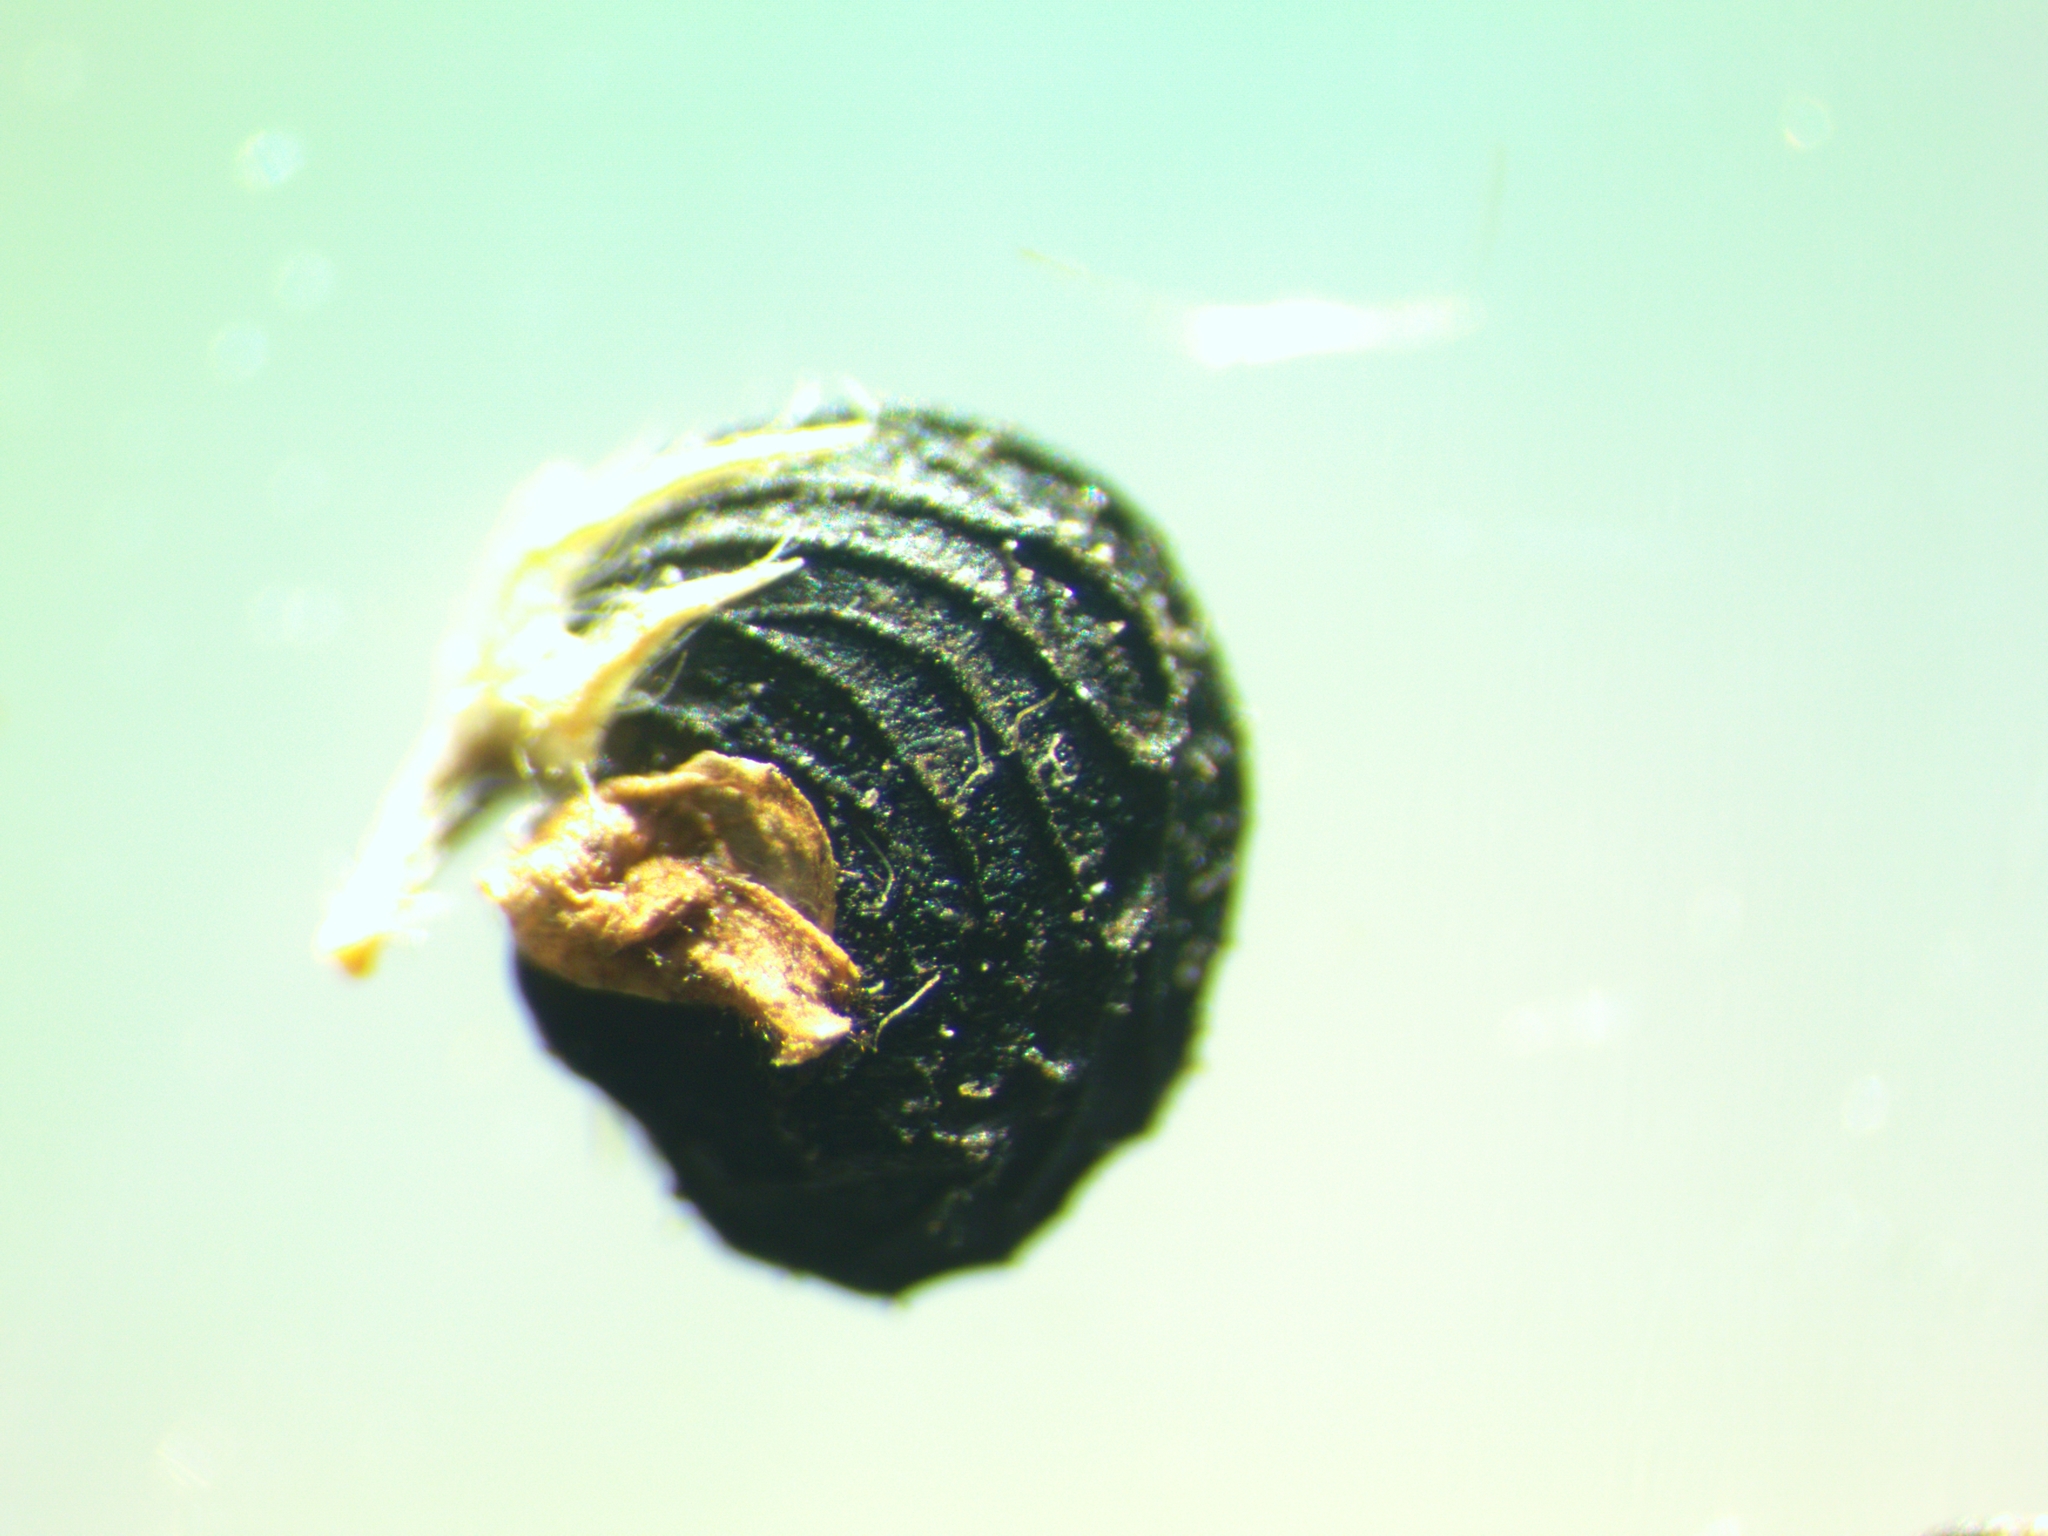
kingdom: Plantae
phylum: Tracheophyta
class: Magnoliopsida
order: Fabales
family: Fabaceae
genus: Medicago
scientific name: Medicago lupulina
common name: Black medick
